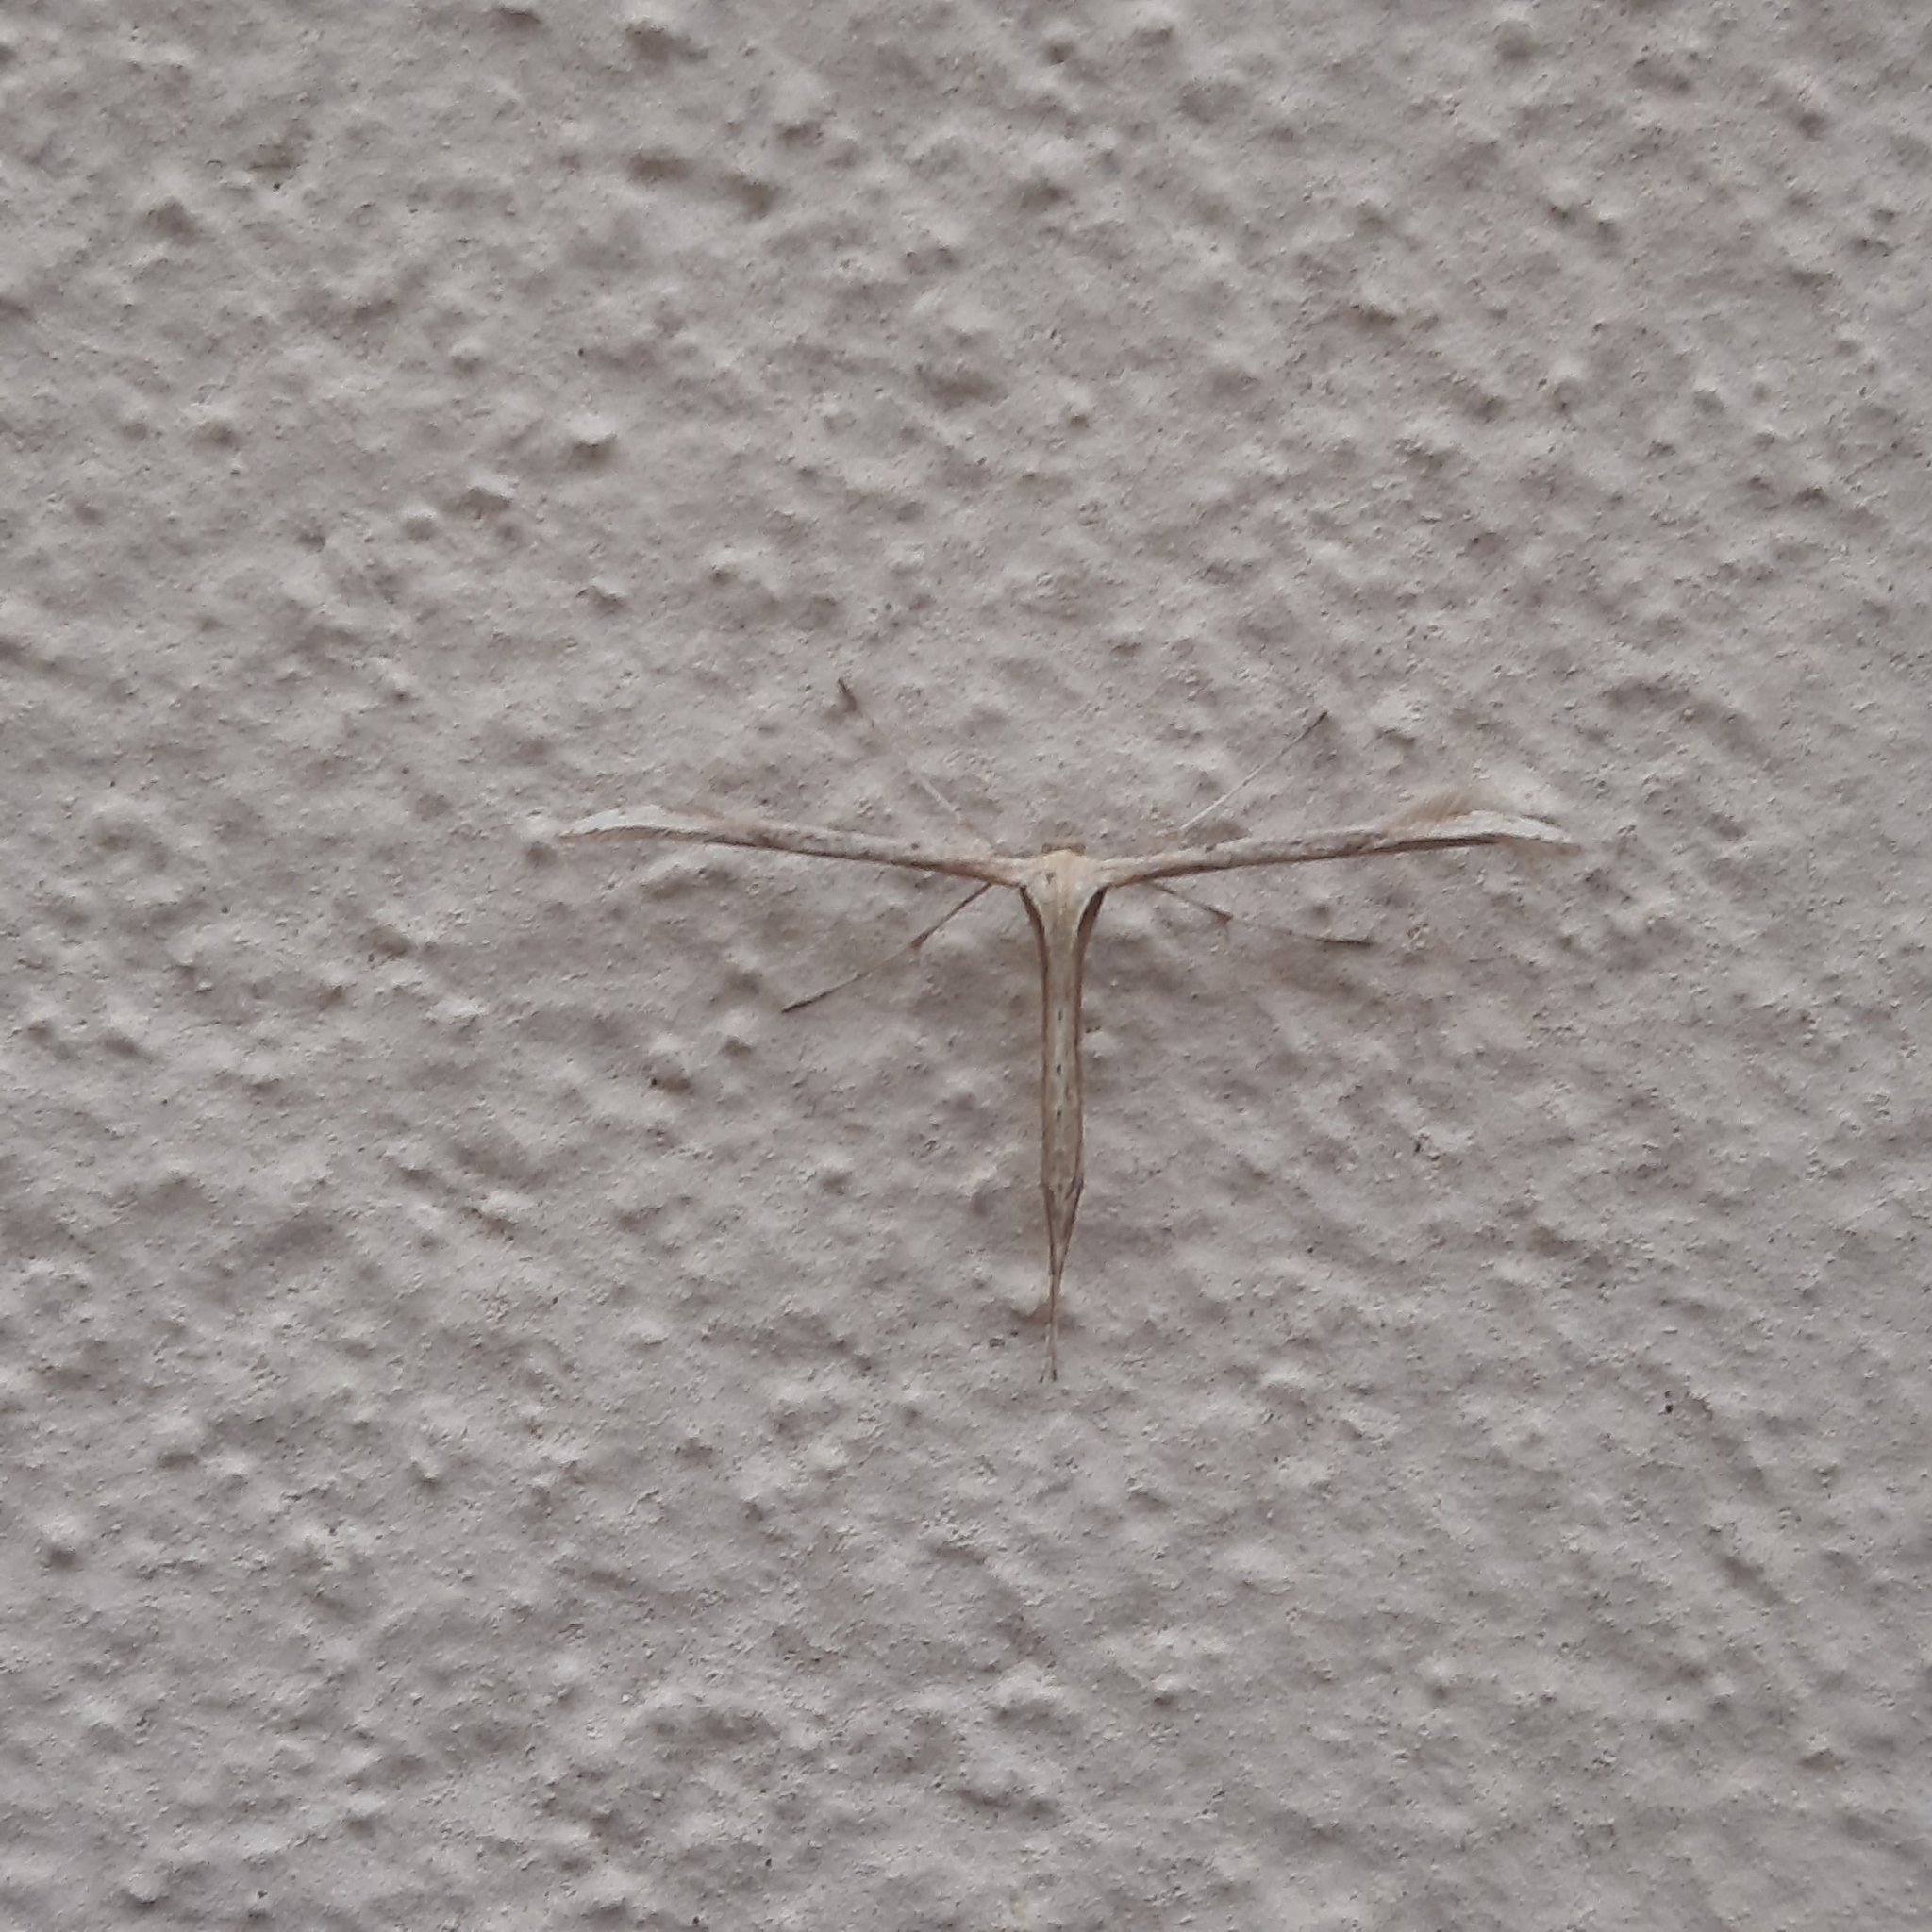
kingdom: Animalia
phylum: Arthropoda
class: Insecta
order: Lepidoptera
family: Pterophoridae
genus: Emmelina
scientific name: Emmelina monodactyla
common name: Common plume
